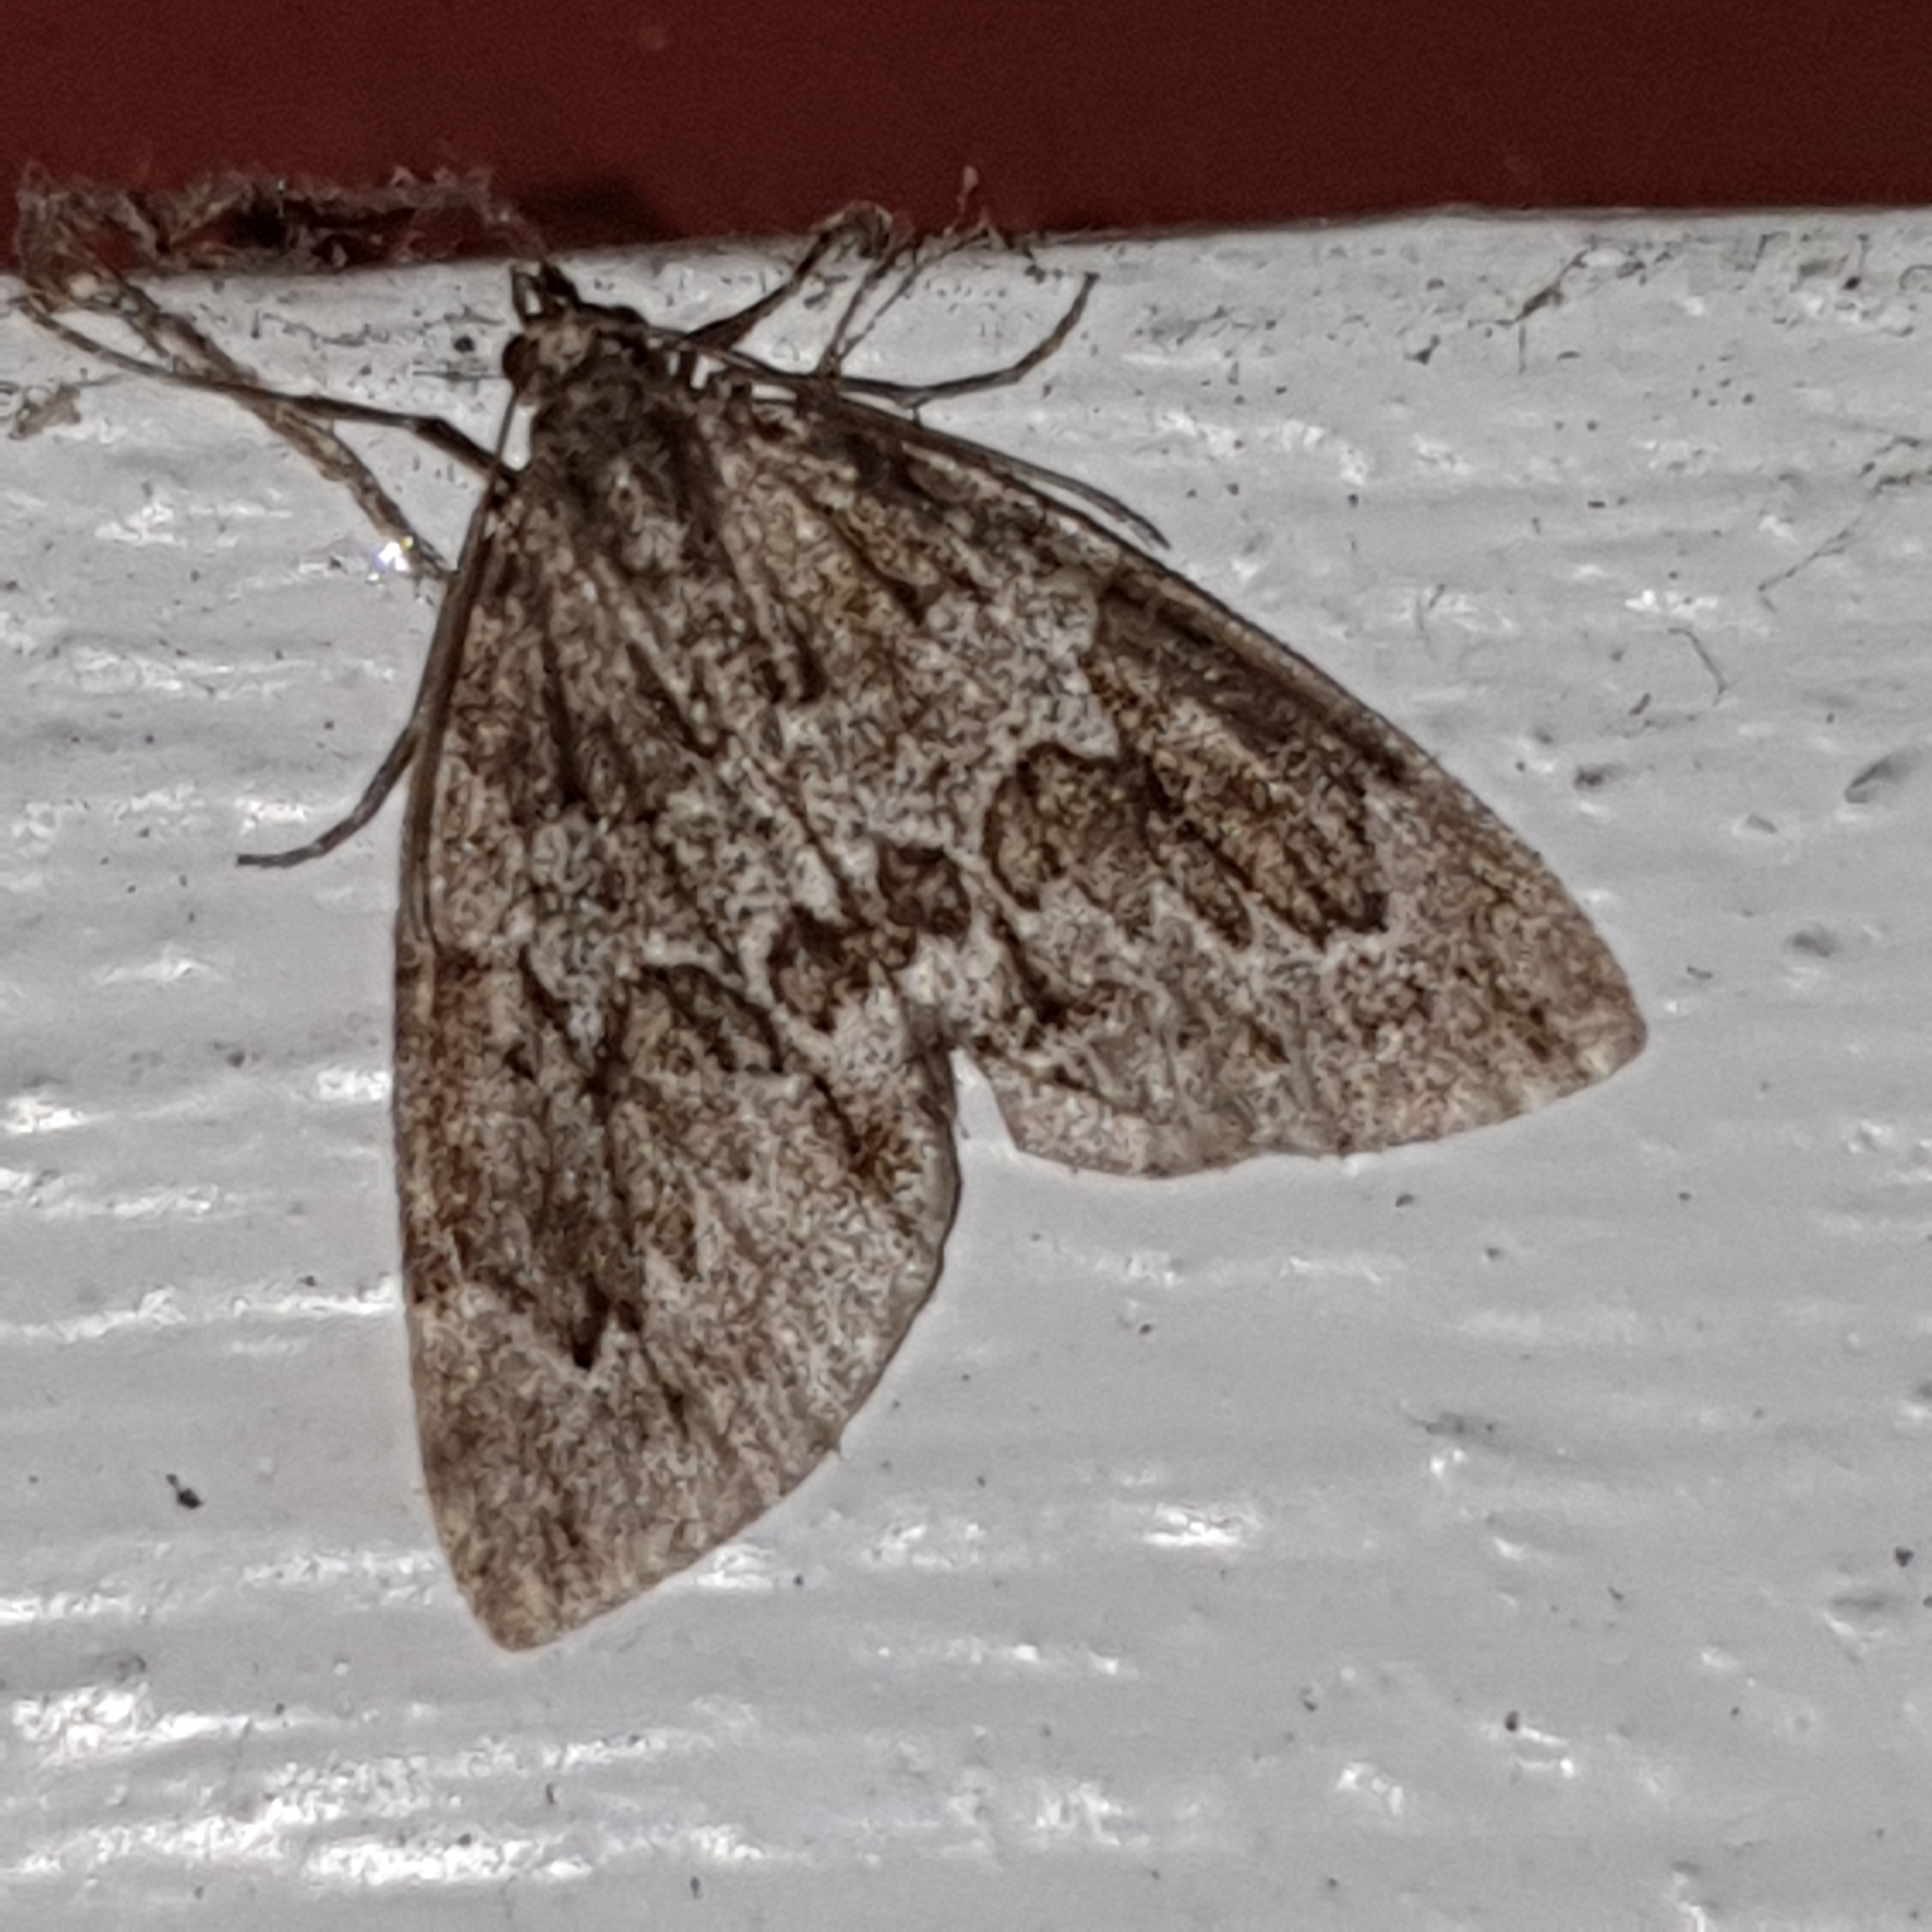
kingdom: Animalia
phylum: Arthropoda
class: Insecta
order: Lepidoptera
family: Geometridae
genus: Thera
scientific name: Thera juniperata
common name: Juniper carpet
